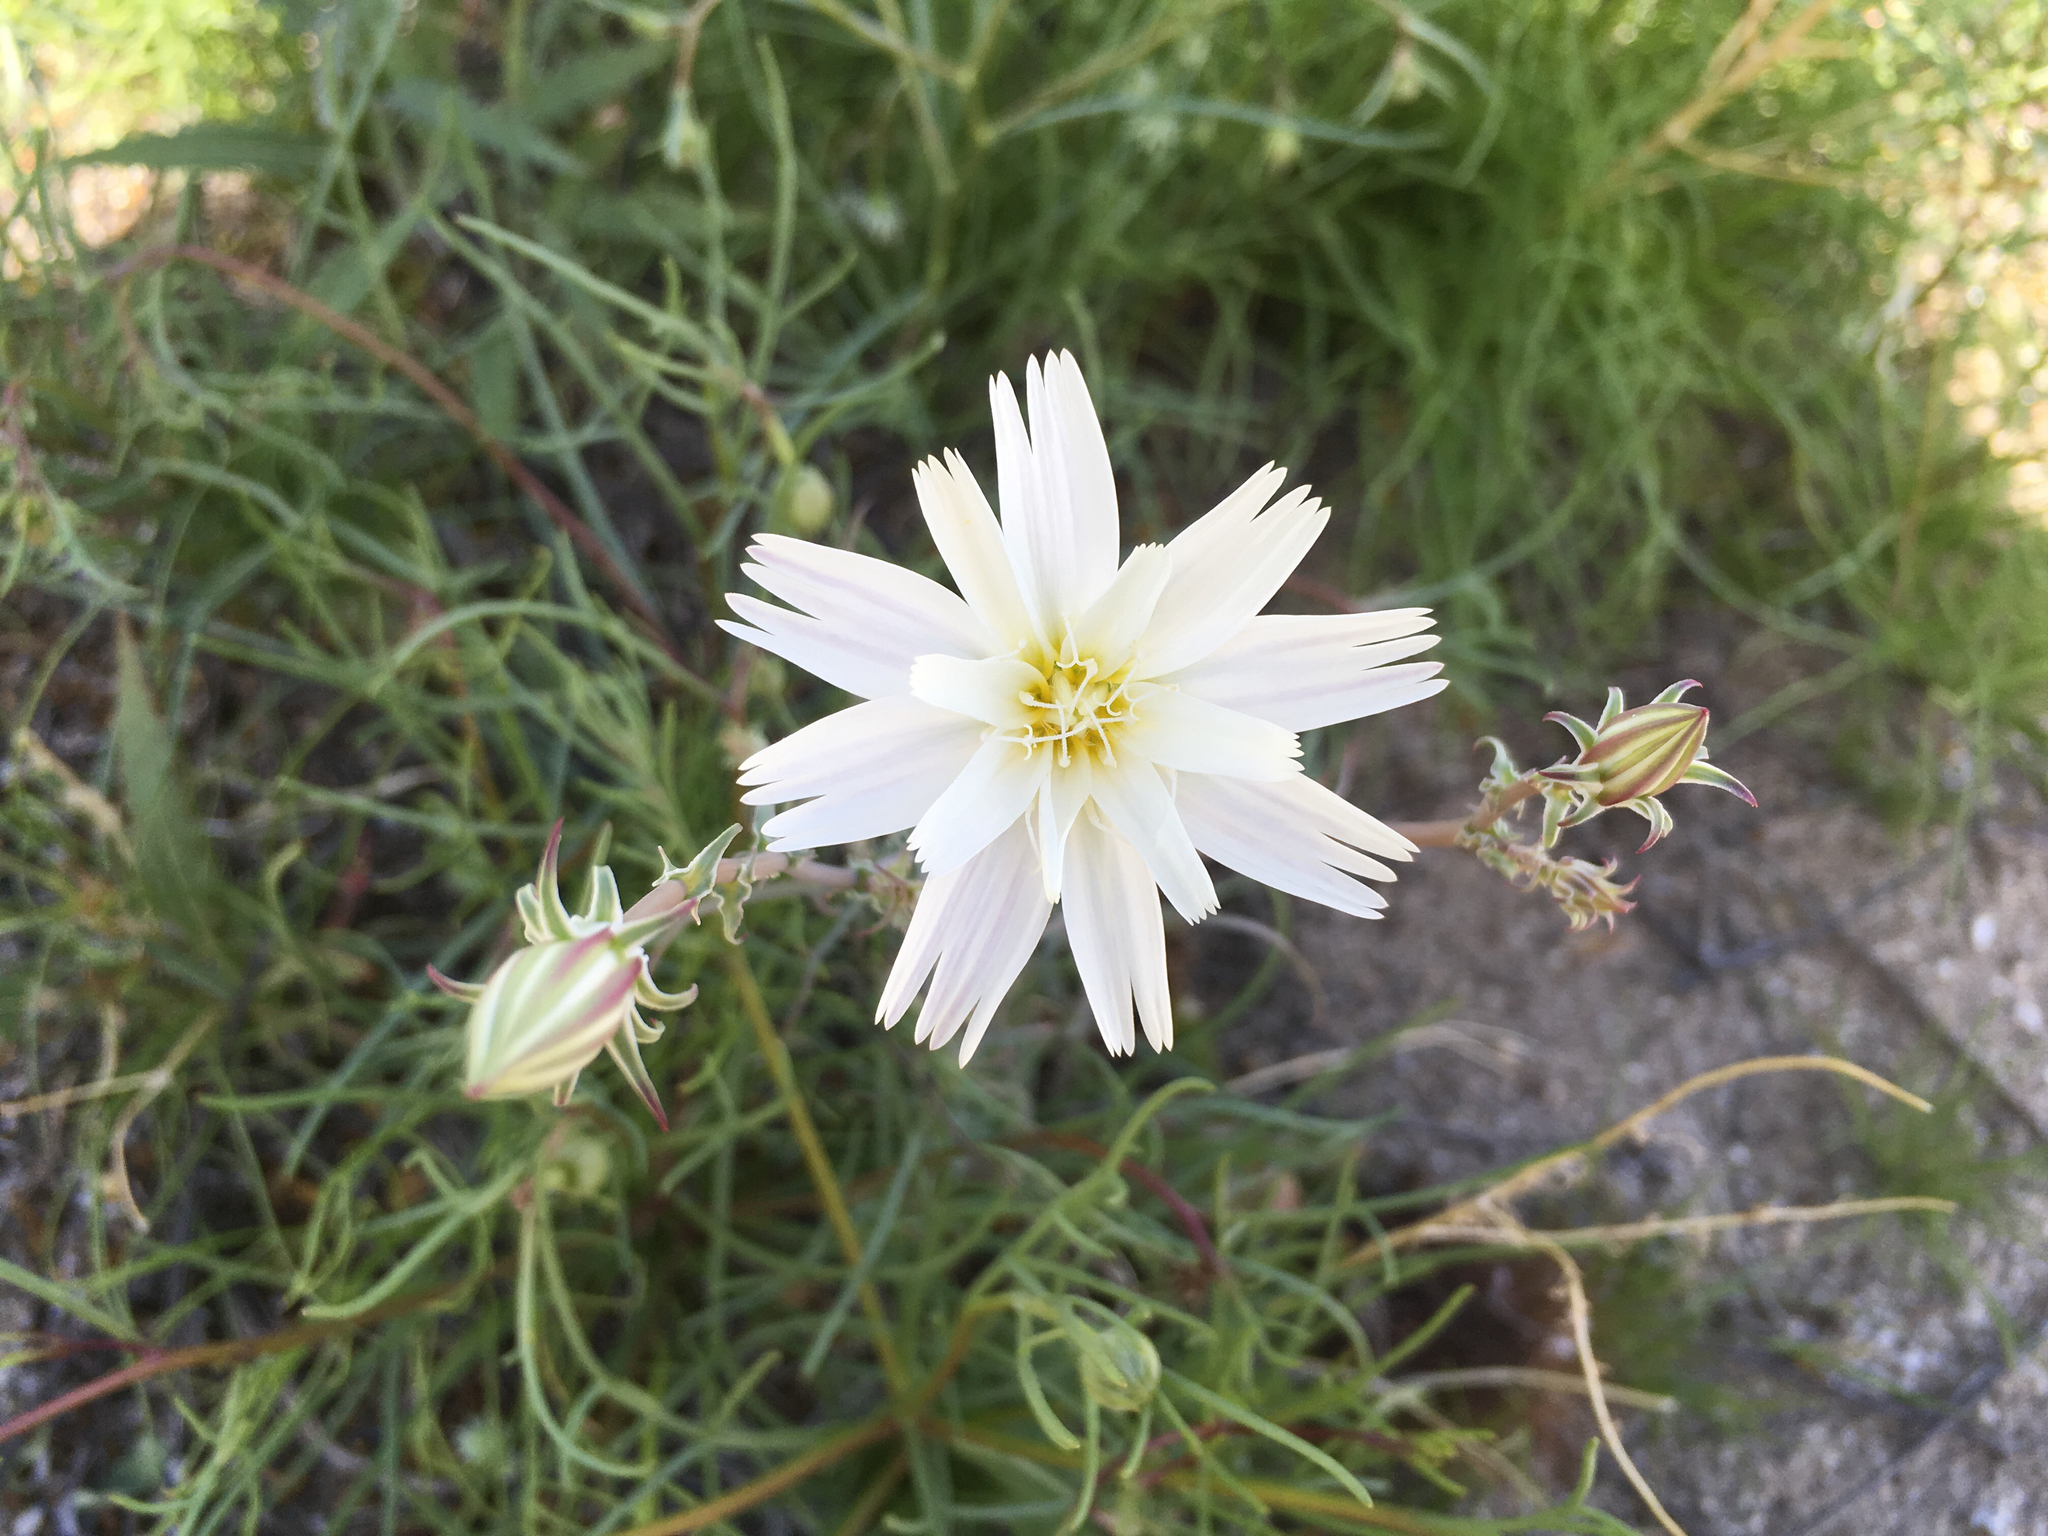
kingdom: Plantae
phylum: Tracheophyta
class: Magnoliopsida
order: Asterales
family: Asteraceae
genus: Rafinesquia
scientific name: Rafinesquia neomexicana
